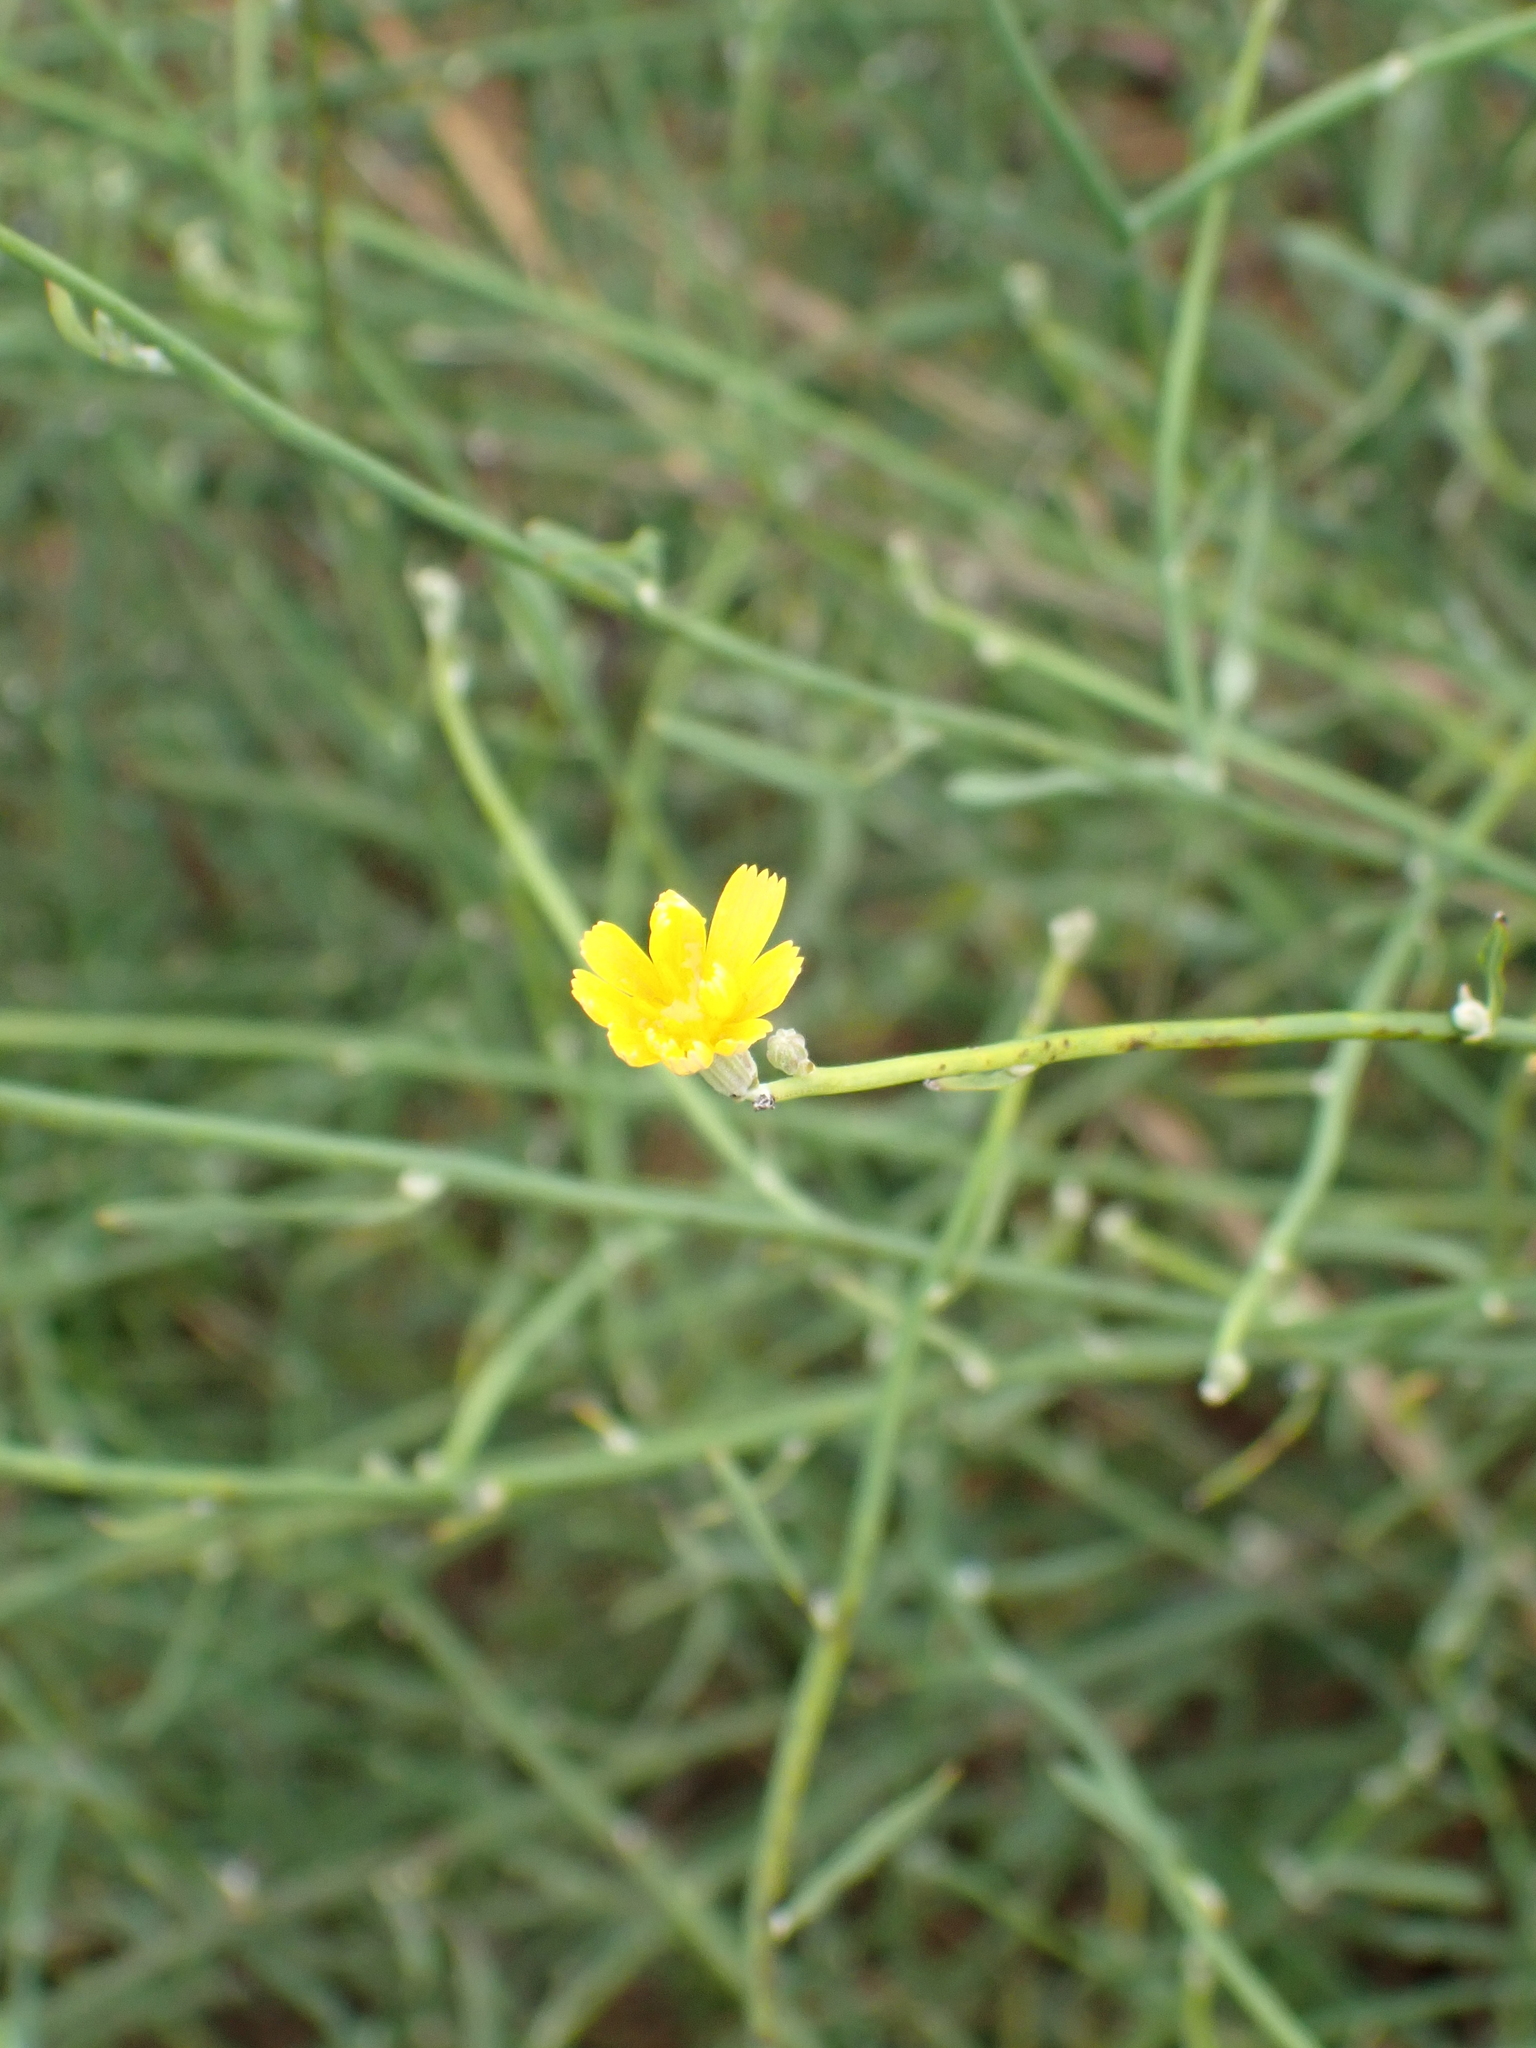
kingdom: Plantae
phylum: Tracheophyta
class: Magnoliopsida
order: Asterales
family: Asteraceae
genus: Chondrilla
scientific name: Chondrilla juncea
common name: Skeleton weed
